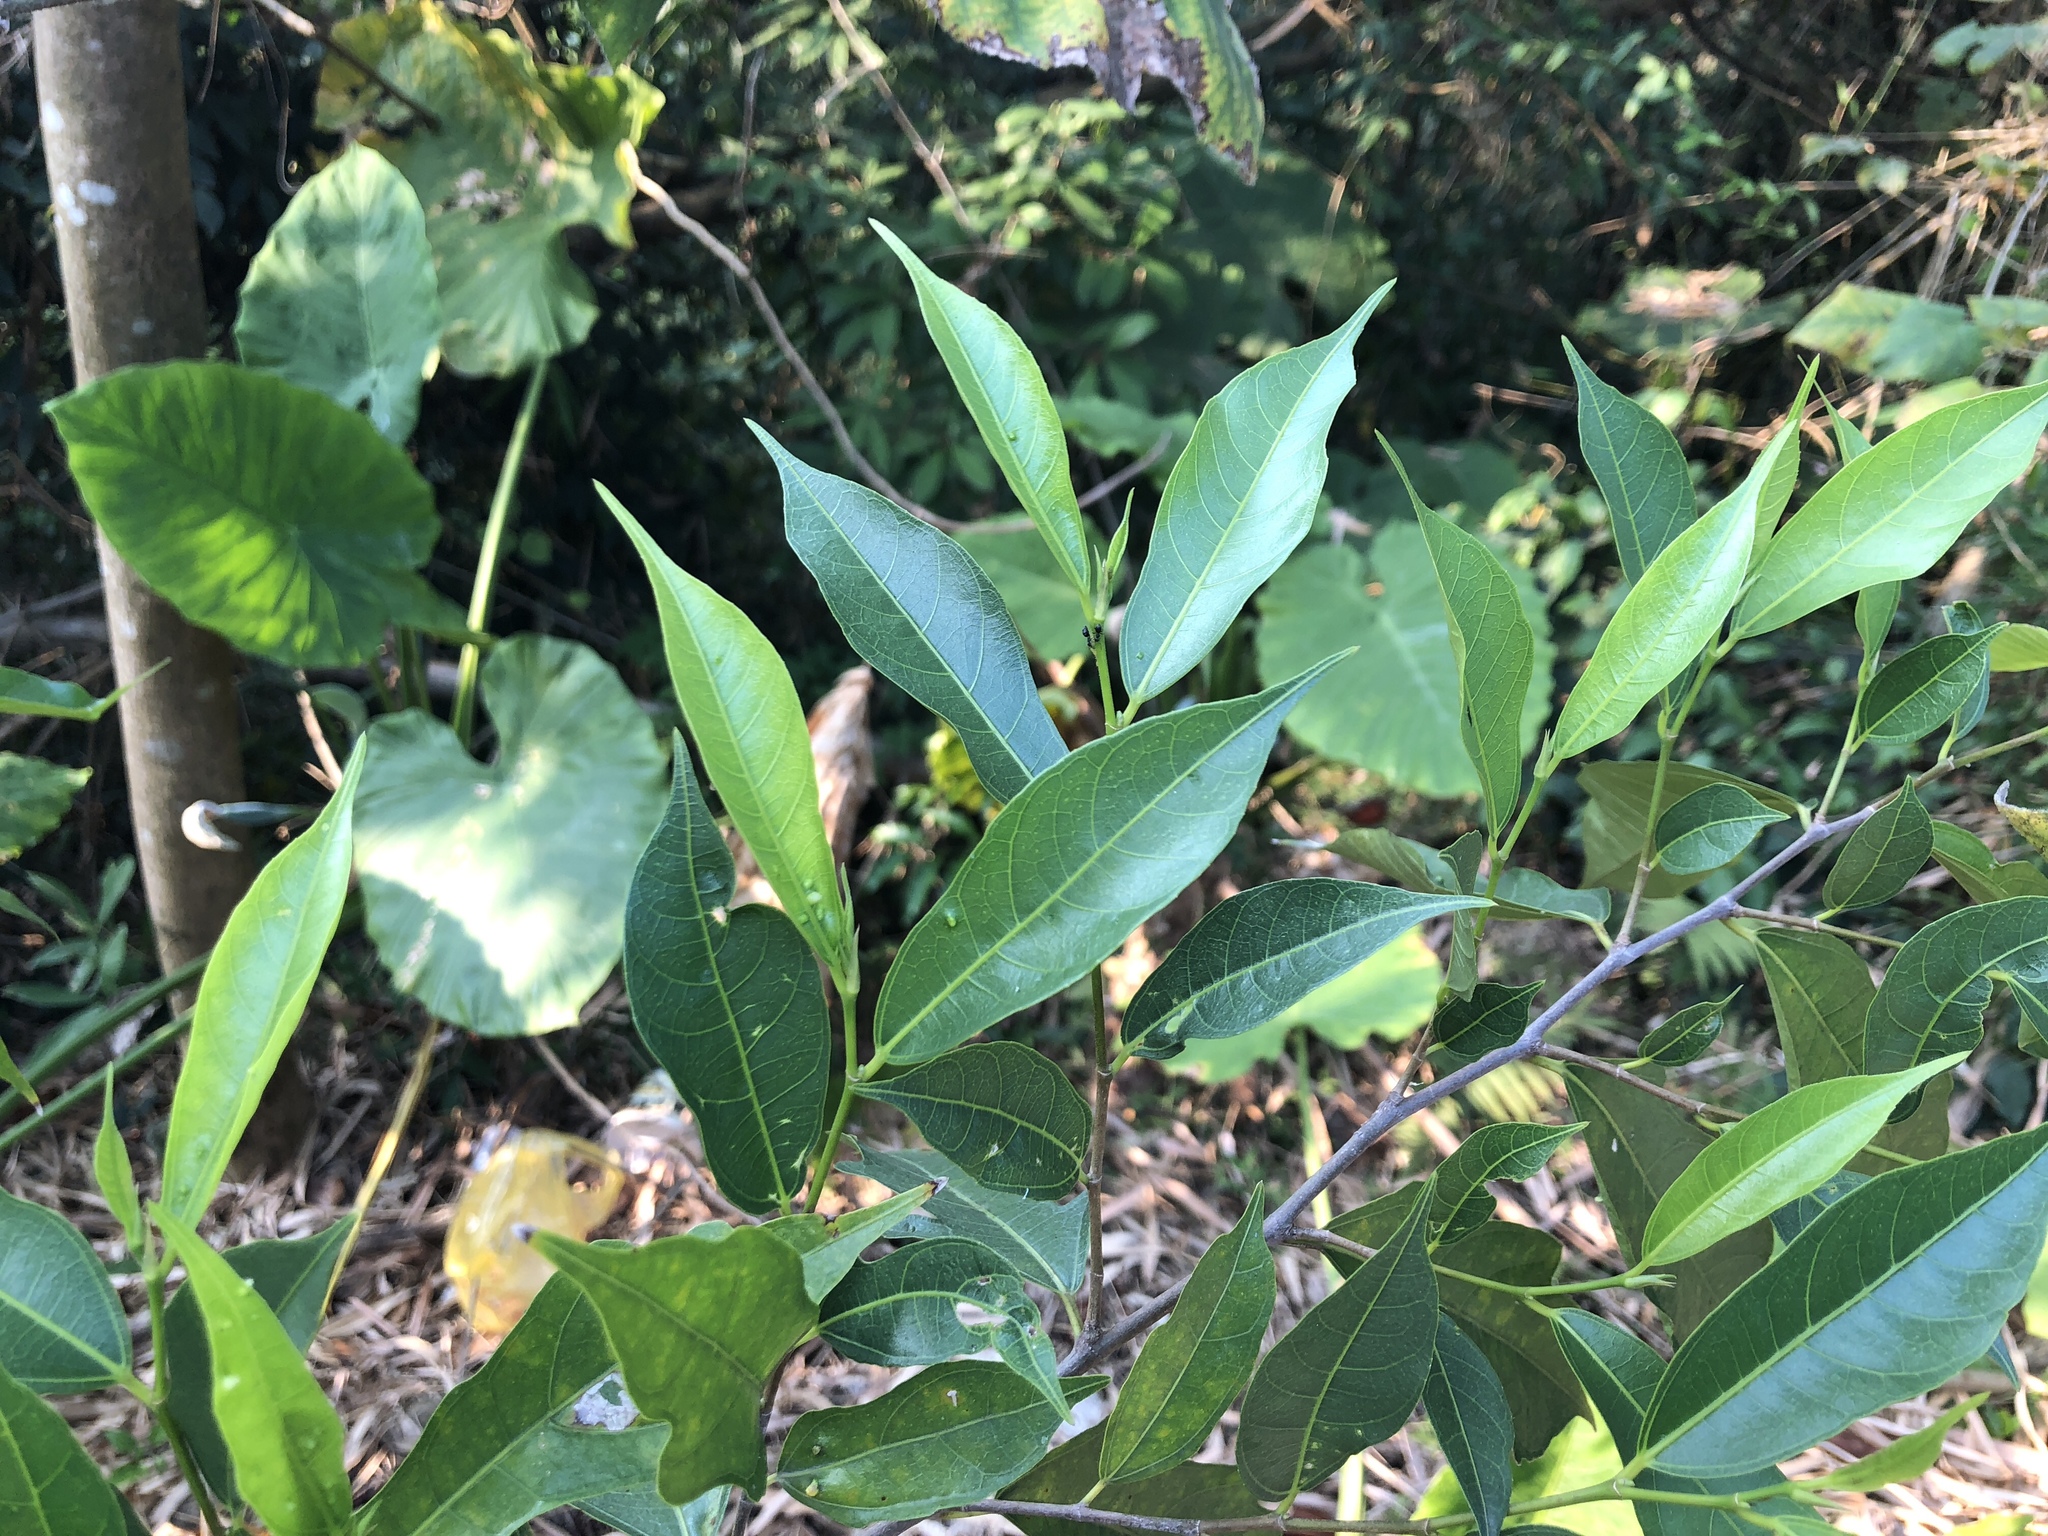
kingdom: Plantae
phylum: Tracheophyta
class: Magnoliopsida
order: Rosales
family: Moraceae
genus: Ficus
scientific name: Ficus ampelos
